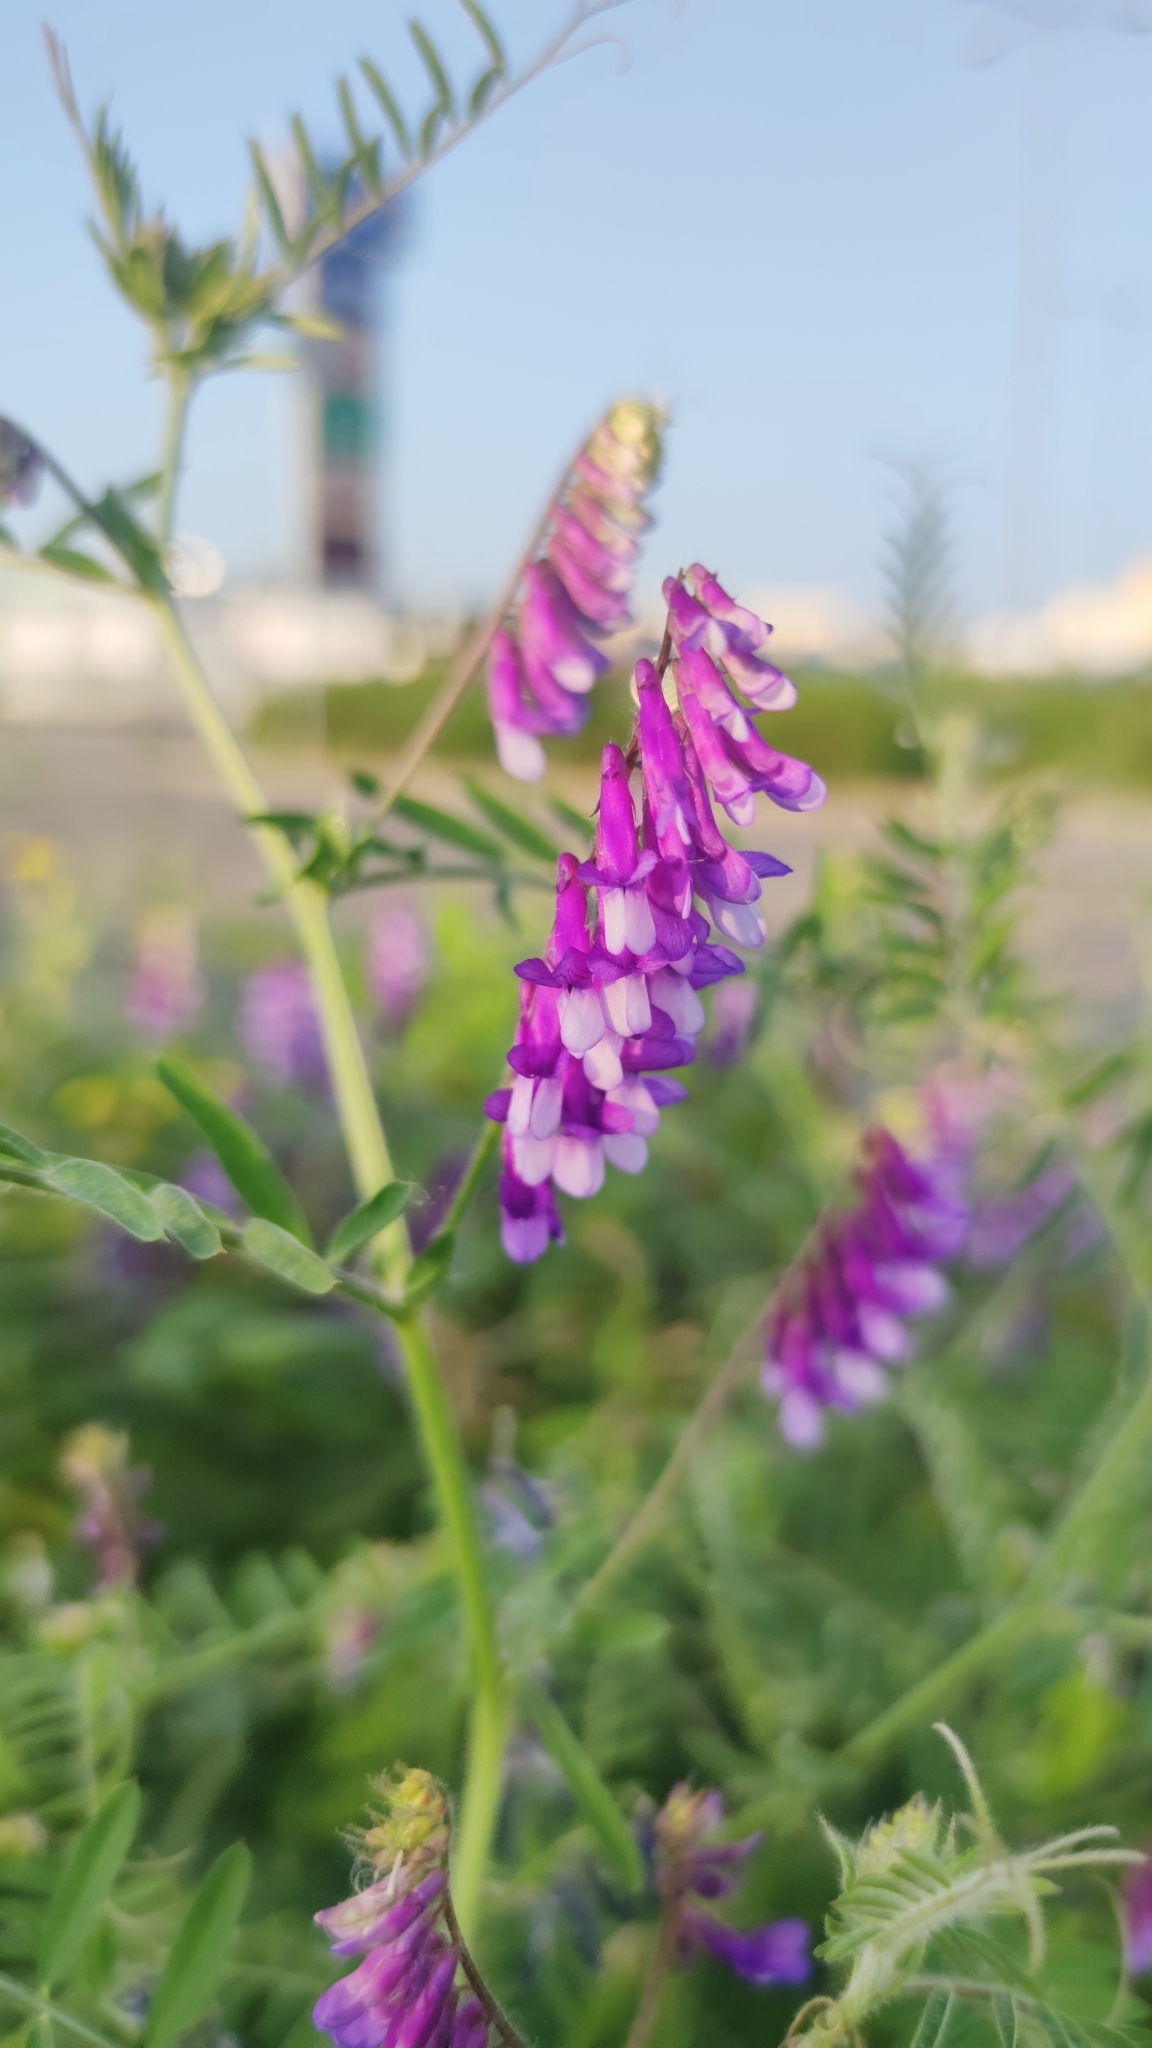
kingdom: Plantae
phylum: Tracheophyta
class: Magnoliopsida
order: Fabales
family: Fabaceae
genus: Vicia
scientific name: Vicia villosa
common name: Fodder vetch
